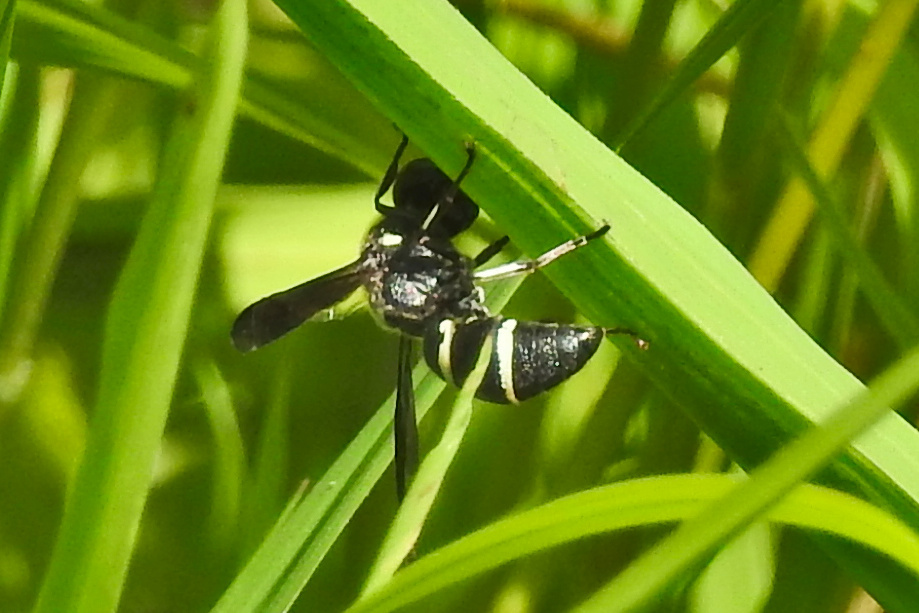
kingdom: Animalia
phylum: Arthropoda
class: Insecta
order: Hymenoptera
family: Eumenidae
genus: Euodynerus
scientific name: Euodynerus schwarzi
